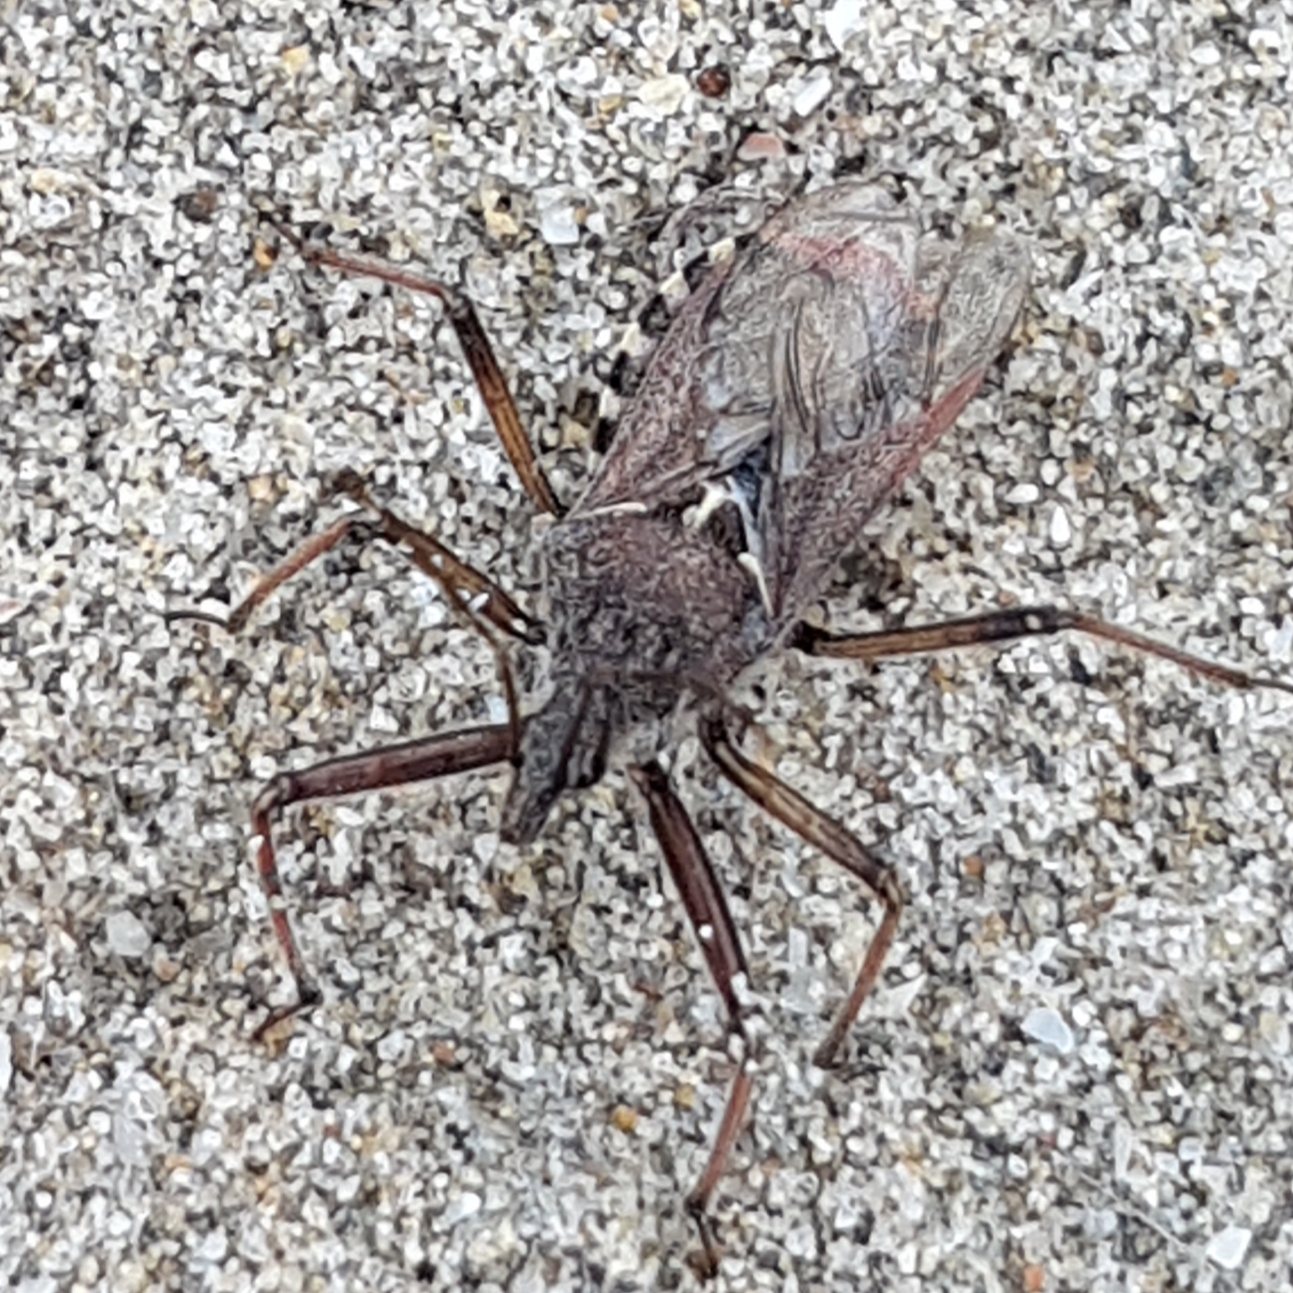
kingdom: Animalia
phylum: Arthropoda
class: Insecta
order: Hemiptera
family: Reduviidae
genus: Rhynocoris
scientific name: Rhynocoris erythropus
